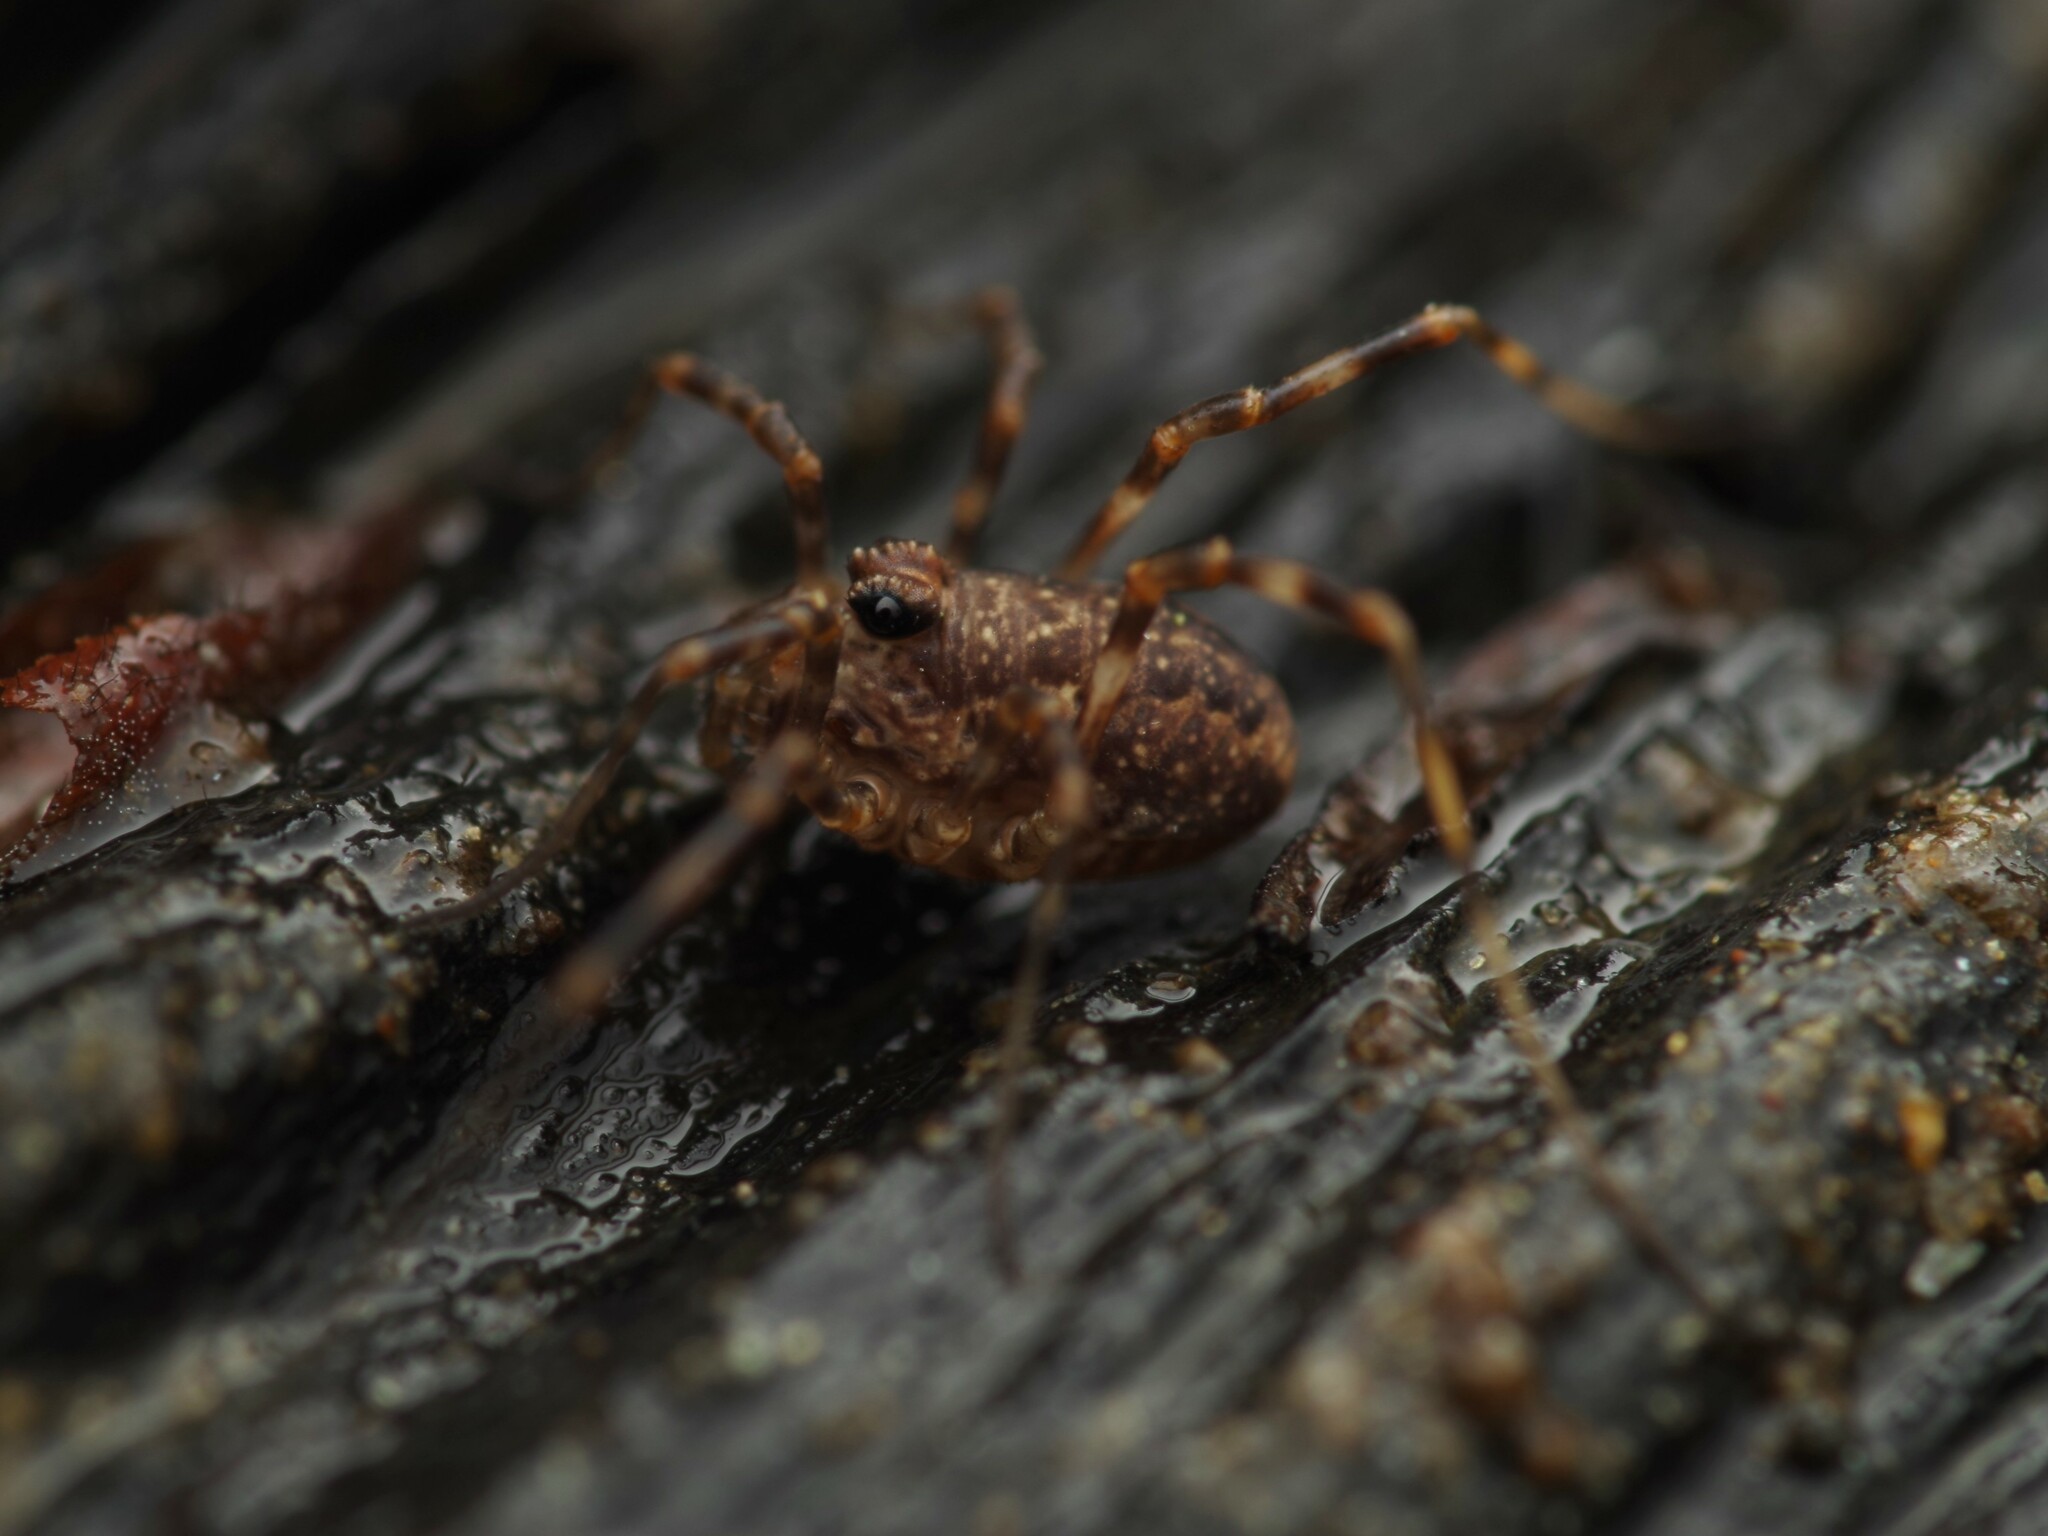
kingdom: Animalia
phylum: Arthropoda
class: Arachnida
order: Opiliones
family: Phalangiidae
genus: Rilaena
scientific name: Rilaena triangularis
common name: Spring harvestman
